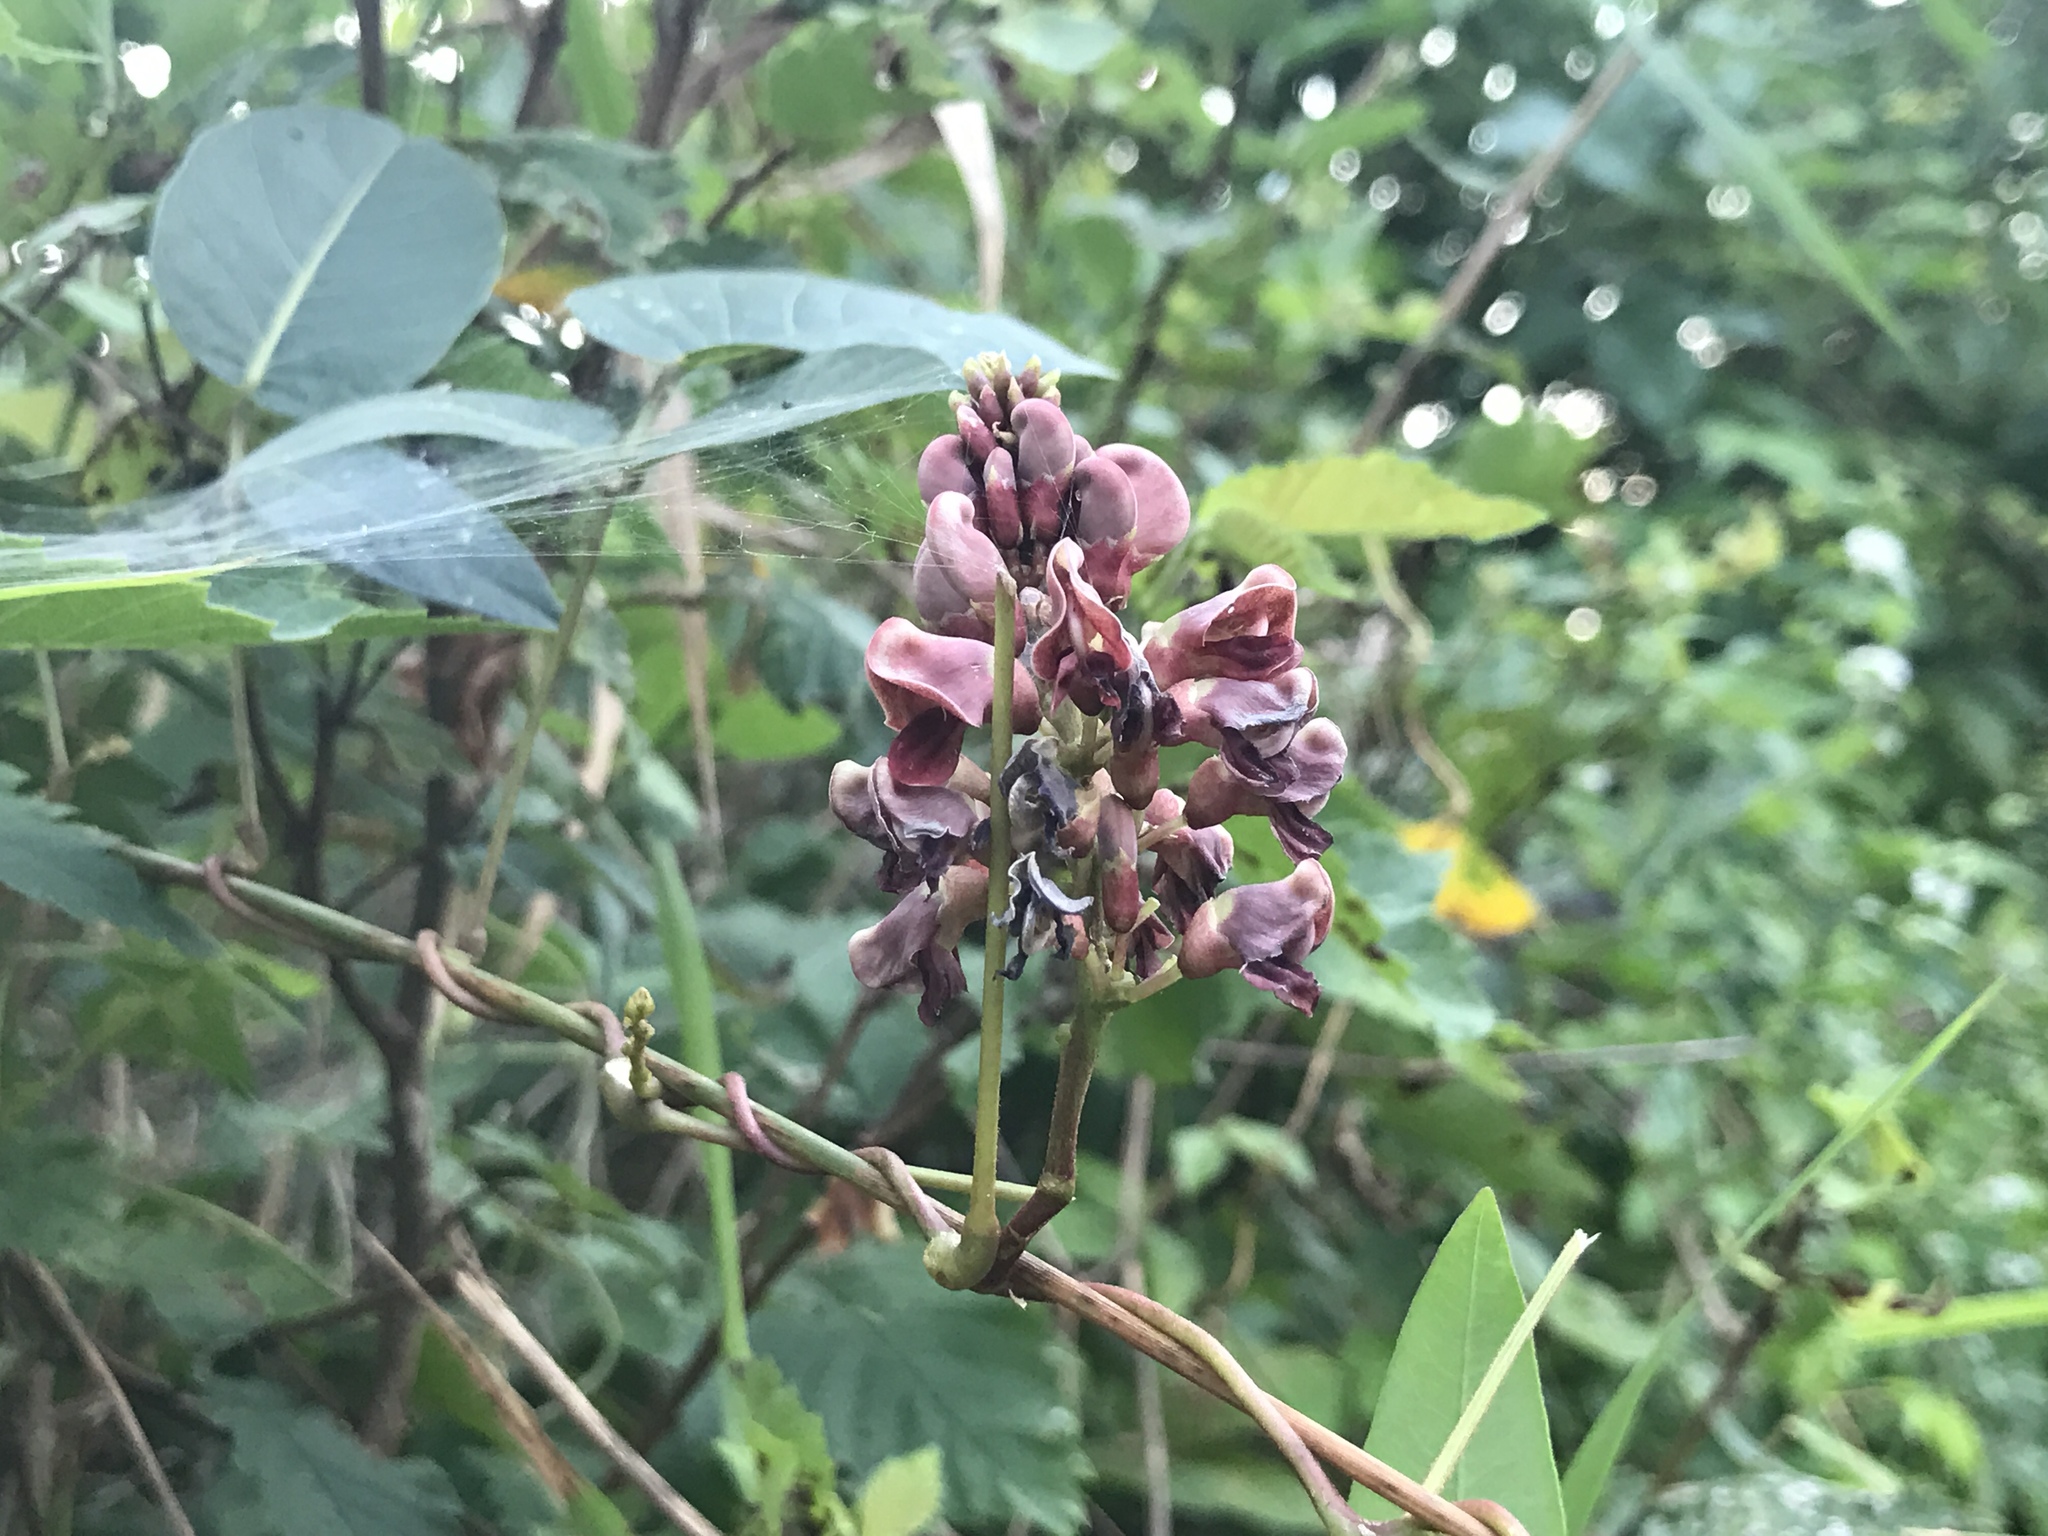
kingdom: Plantae
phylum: Tracheophyta
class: Magnoliopsida
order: Fabales
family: Fabaceae
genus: Apios
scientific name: Apios americana
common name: American potato-bean
